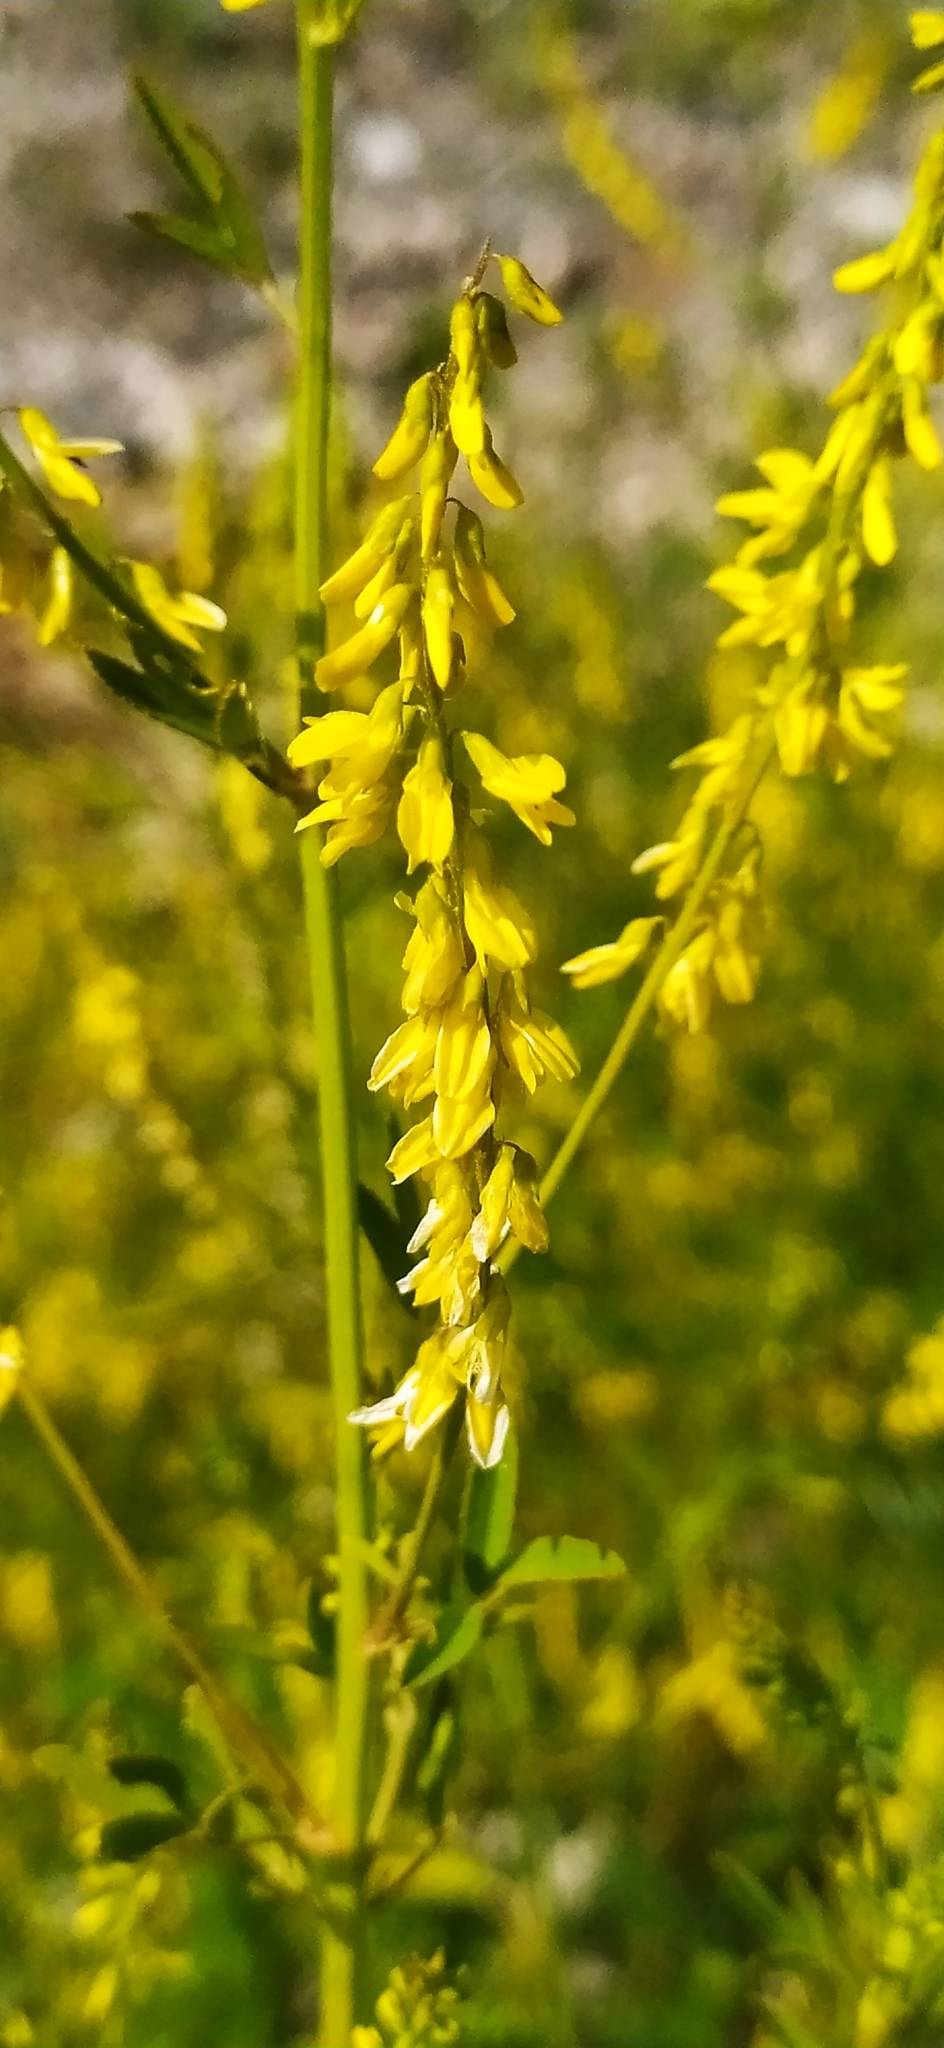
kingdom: Plantae
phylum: Tracheophyta
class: Magnoliopsida
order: Fabales
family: Fabaceae
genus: Melilotus
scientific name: Melilotus officinalis
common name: Sweetclover
